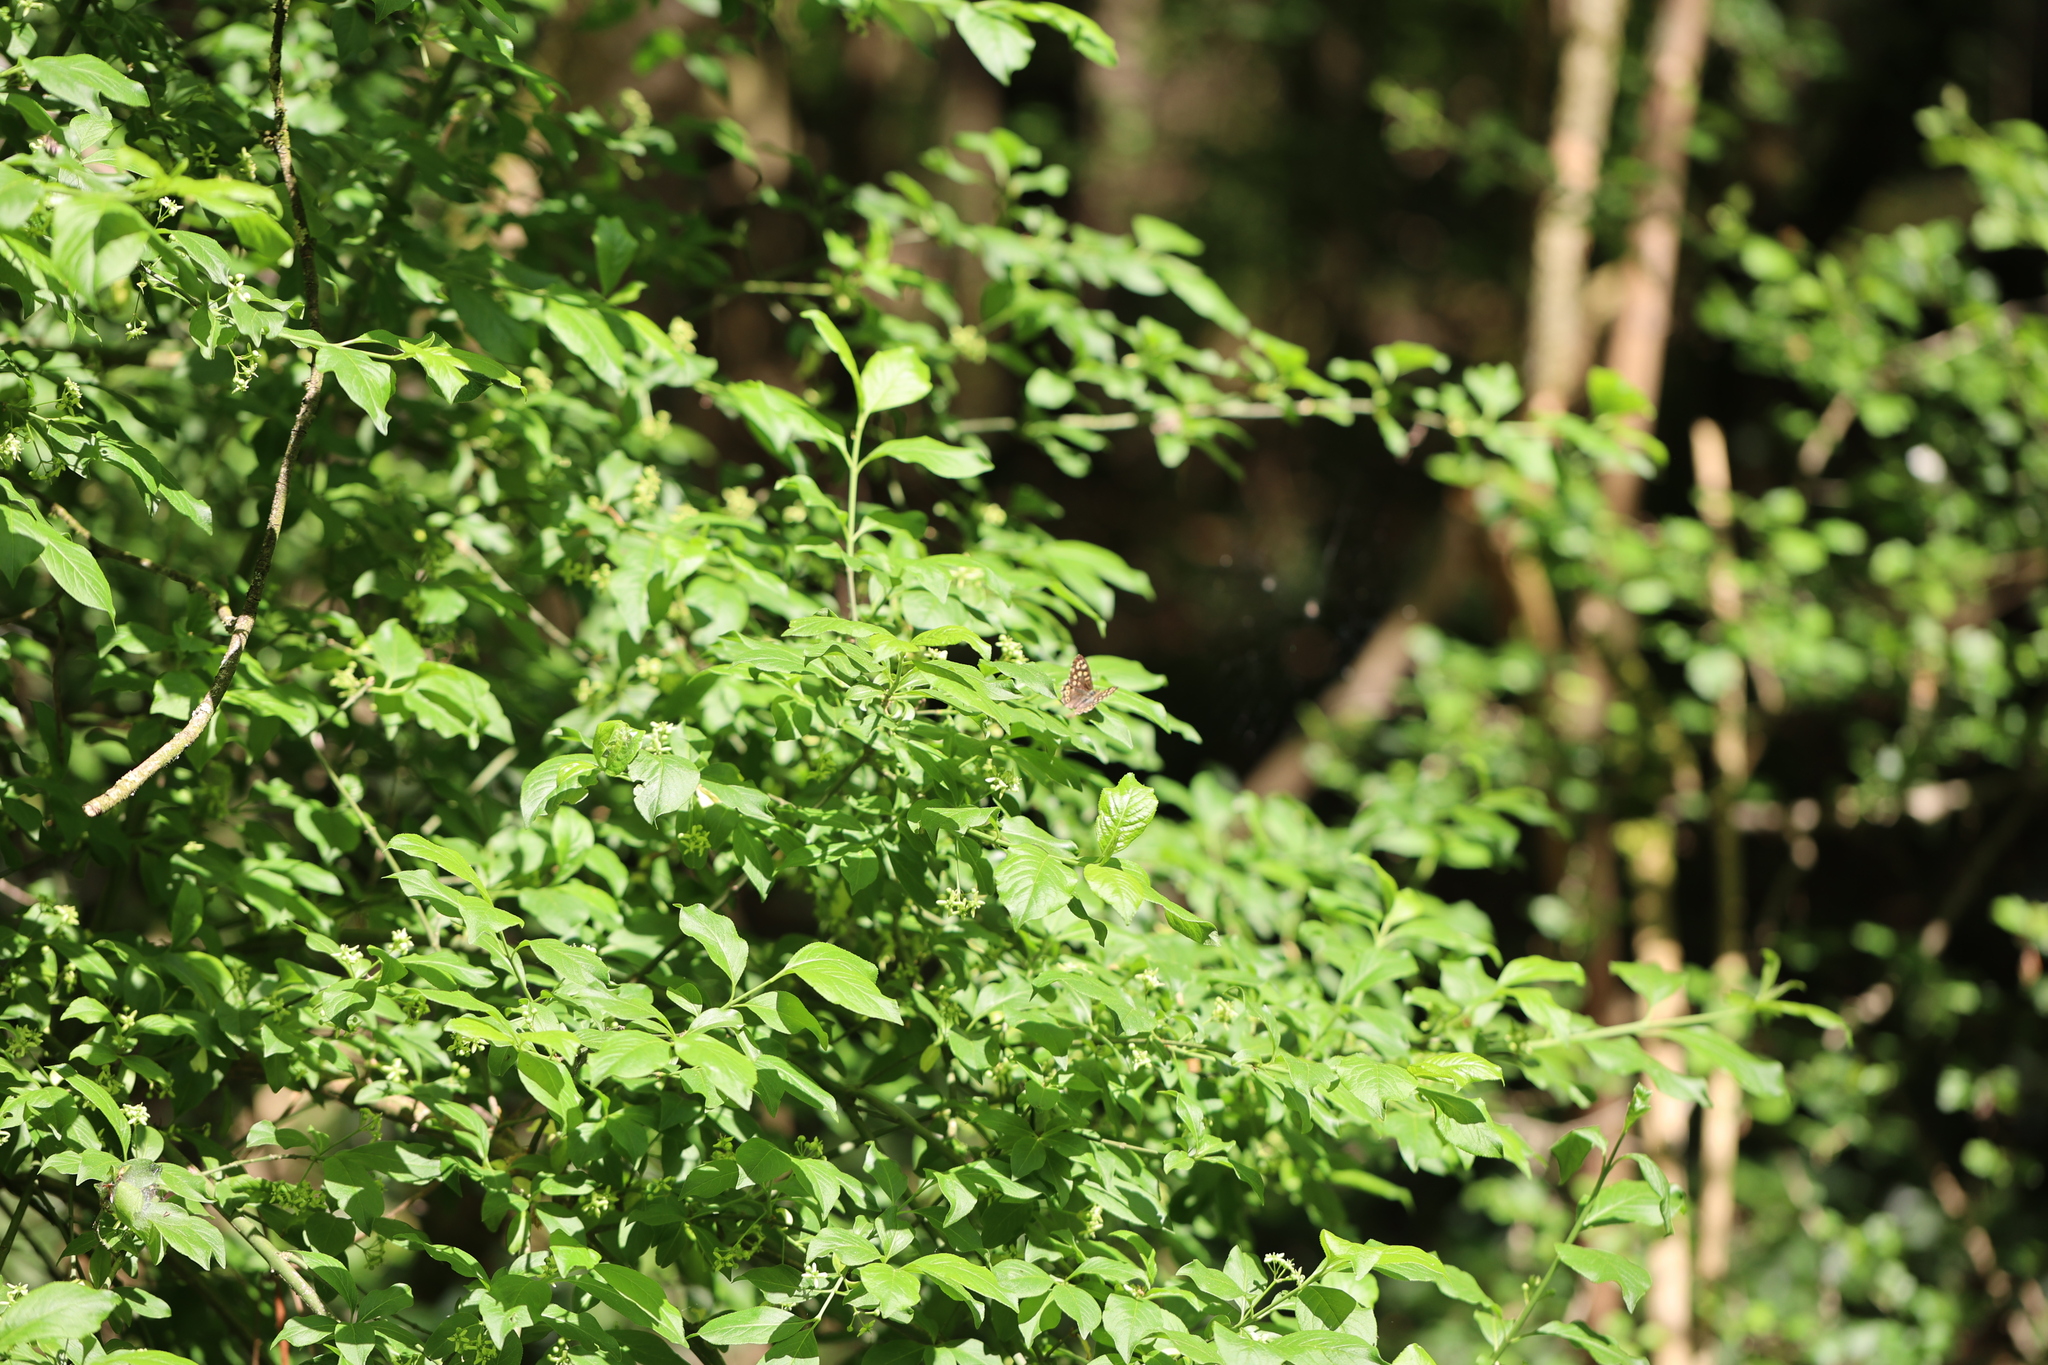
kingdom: Animalia
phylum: Arthropoda
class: Insecta
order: Lepidoptera
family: Nymphalidae
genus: Pararge
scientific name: Pararge aegeria
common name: Speckled wood
